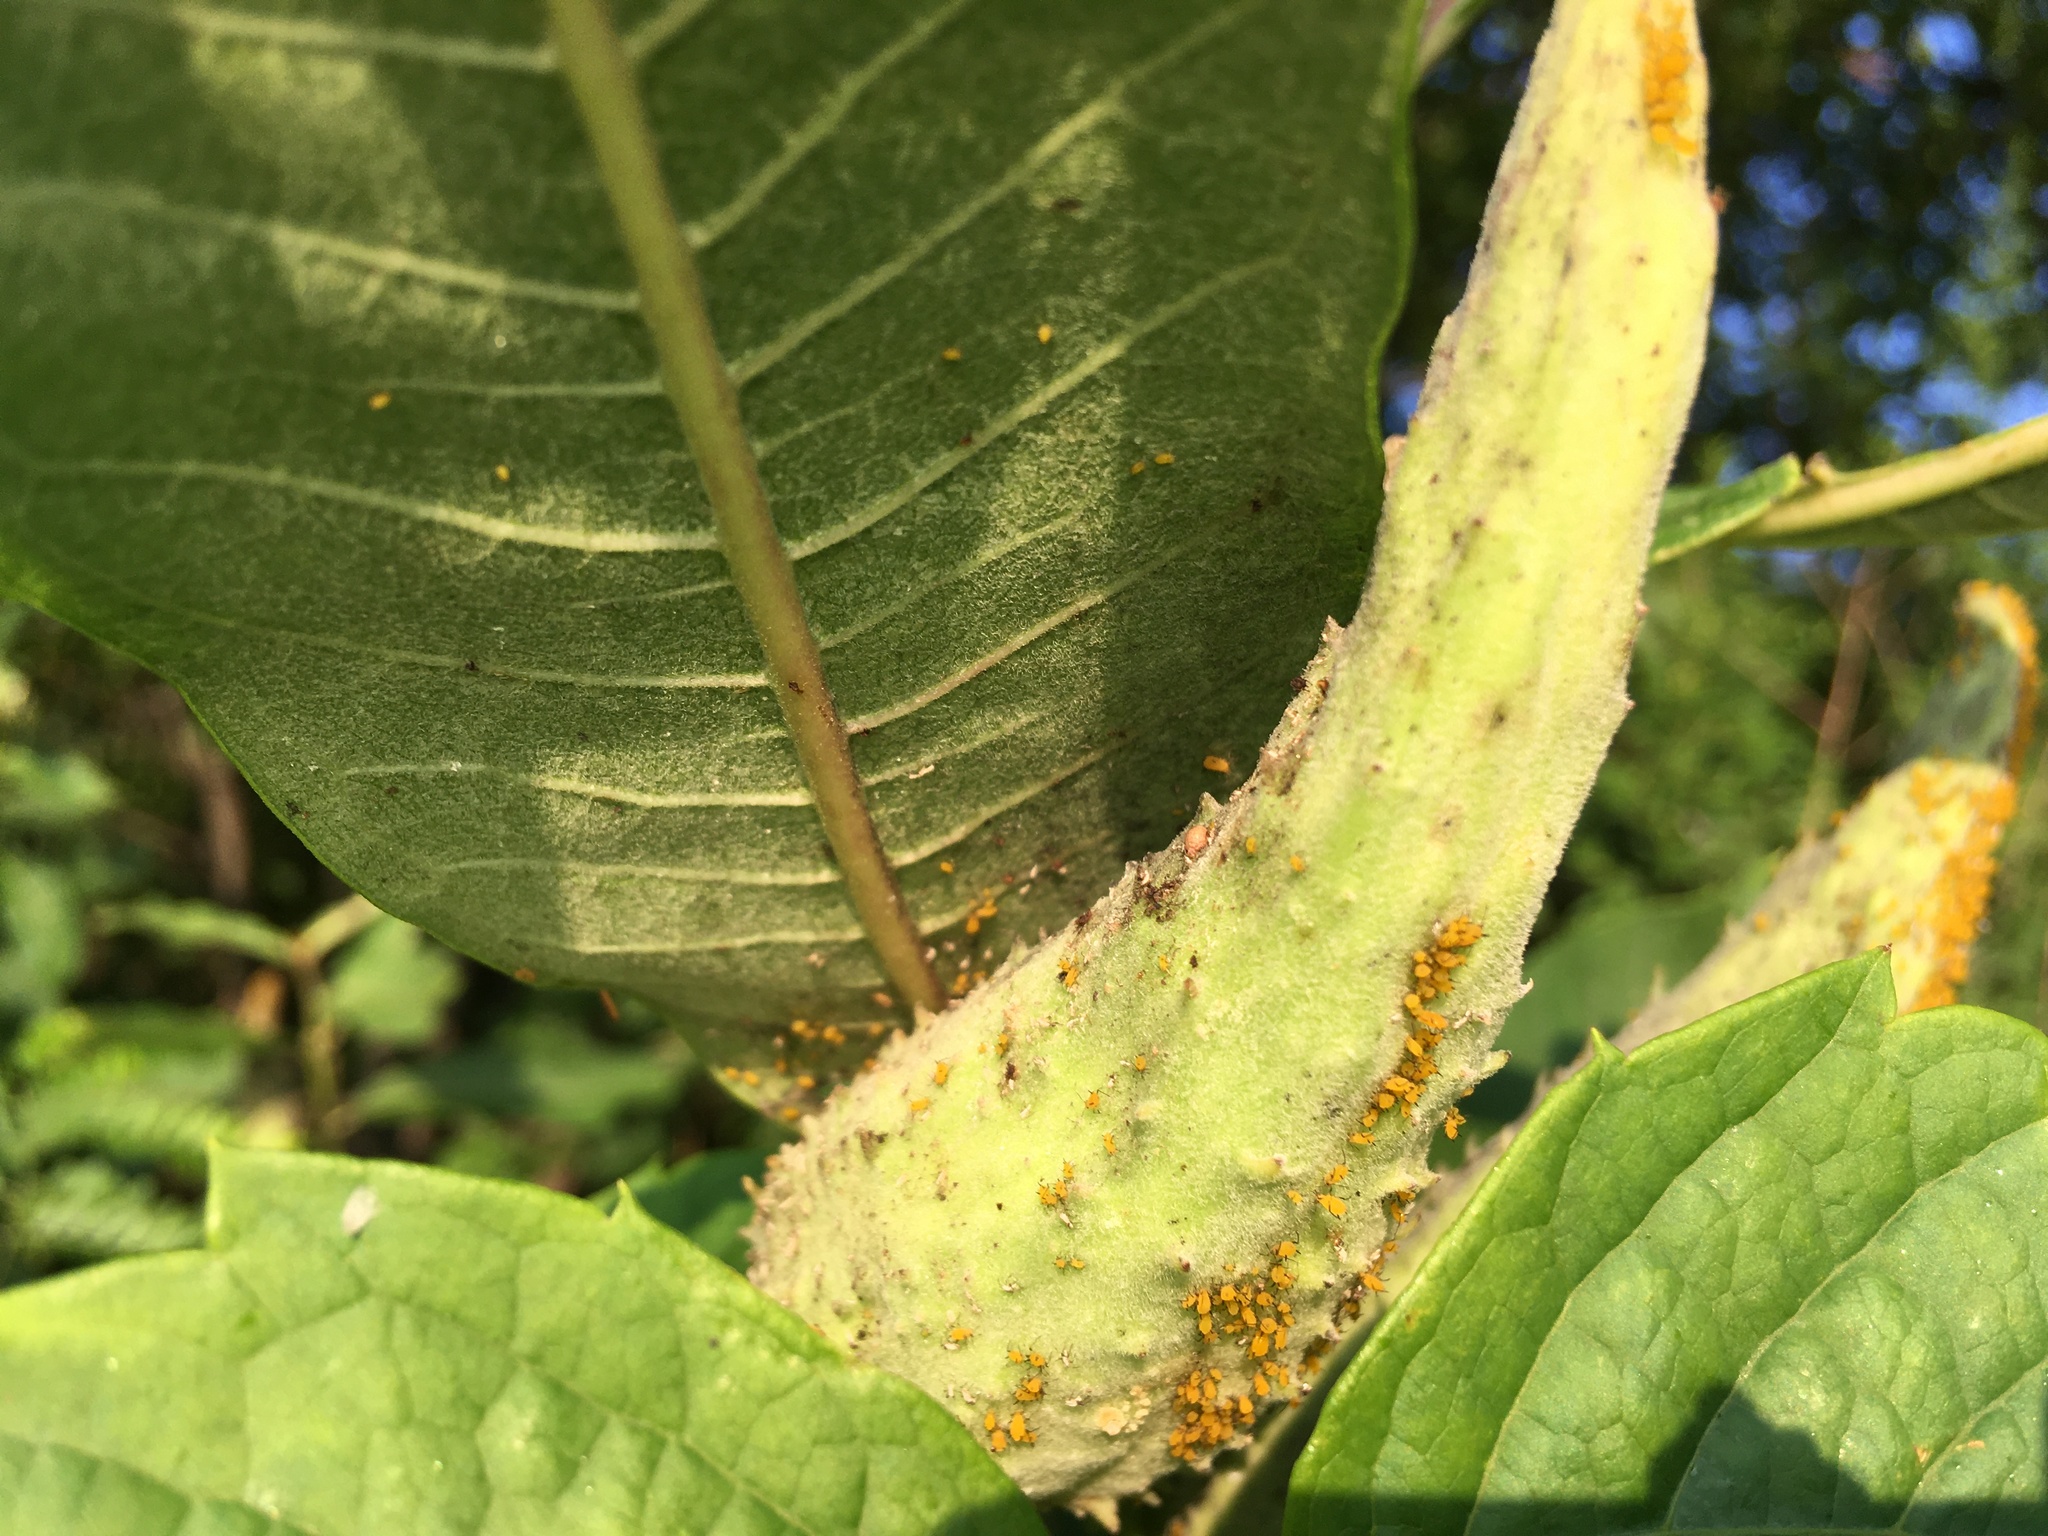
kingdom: Plantae
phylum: Tracheophyta
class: Magnoliopsida
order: Gentianales
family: Apocynaceae
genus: Asclepias
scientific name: Asclepias syriaca
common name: Common milkweed
